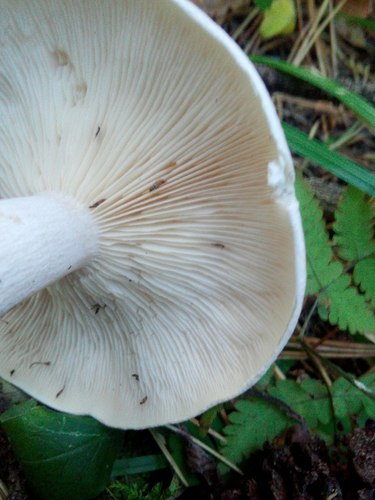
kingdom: Fungi
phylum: Basidiomycota
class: Agaricomycetes
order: Agaricales
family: Tricholomataceae
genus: Clitocybe
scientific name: Clitocybe nebularis
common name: Clouded agaric
